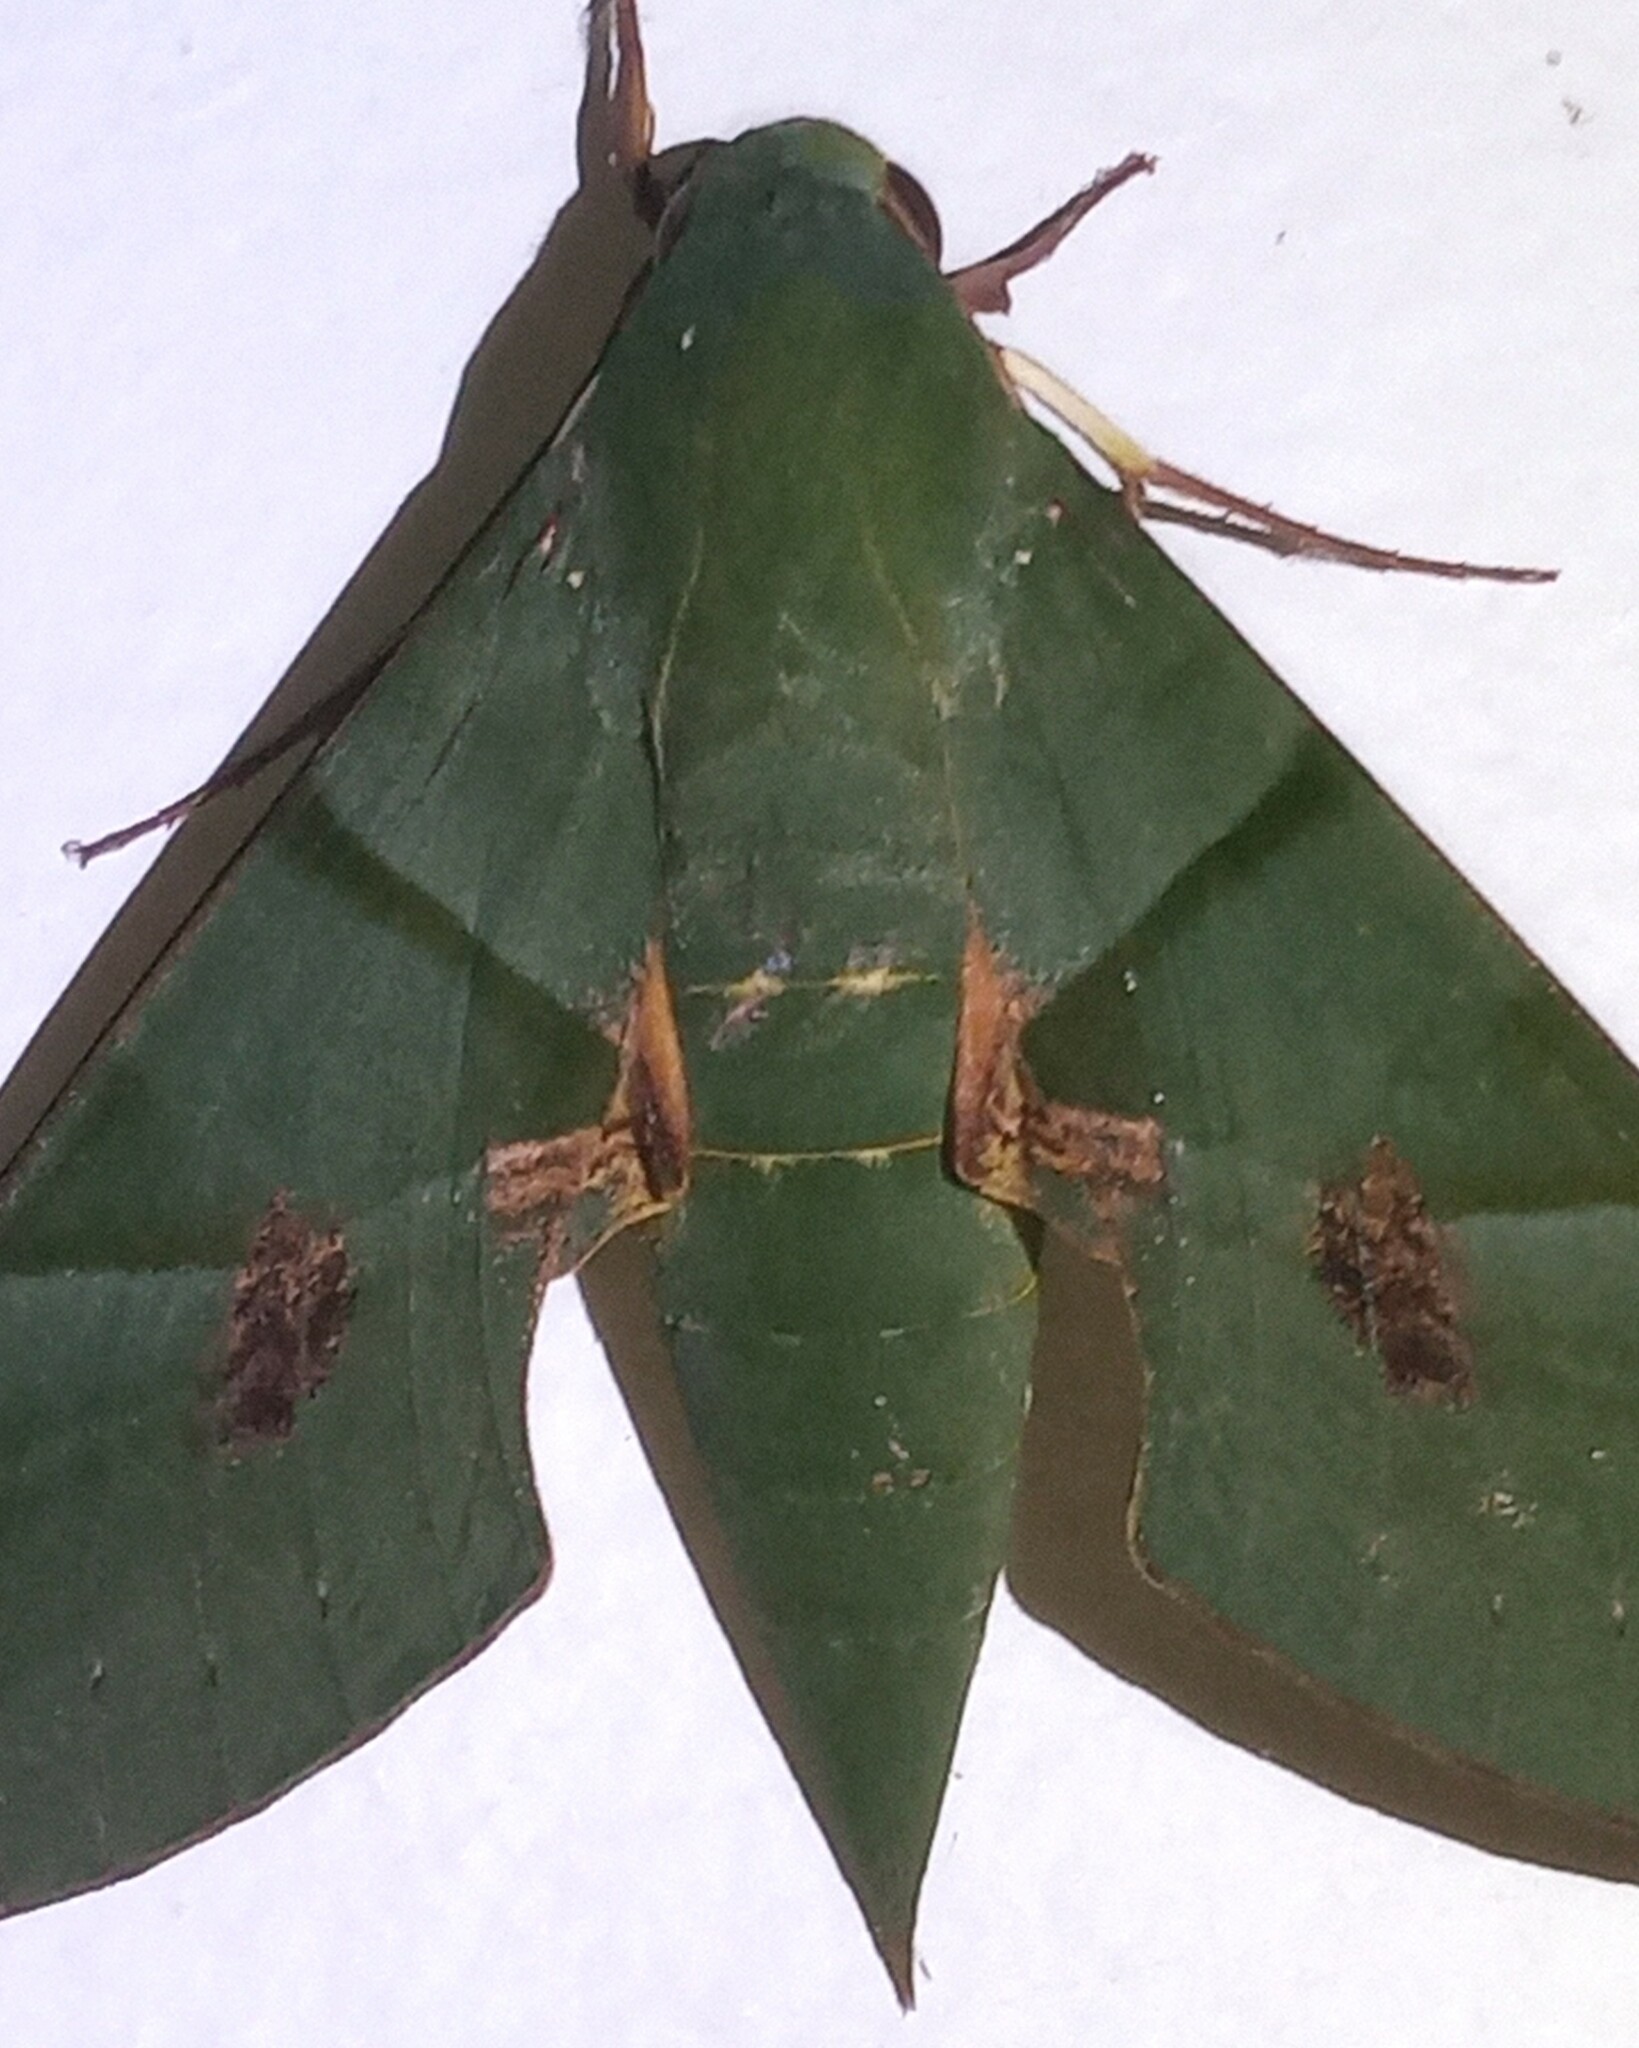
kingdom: Animalia
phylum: Arthropoda
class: Insecta
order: Lepidoptera
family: Sphingidae
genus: Eumorpha
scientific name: Eumorpha labruscae
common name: Gaudy sphinx
